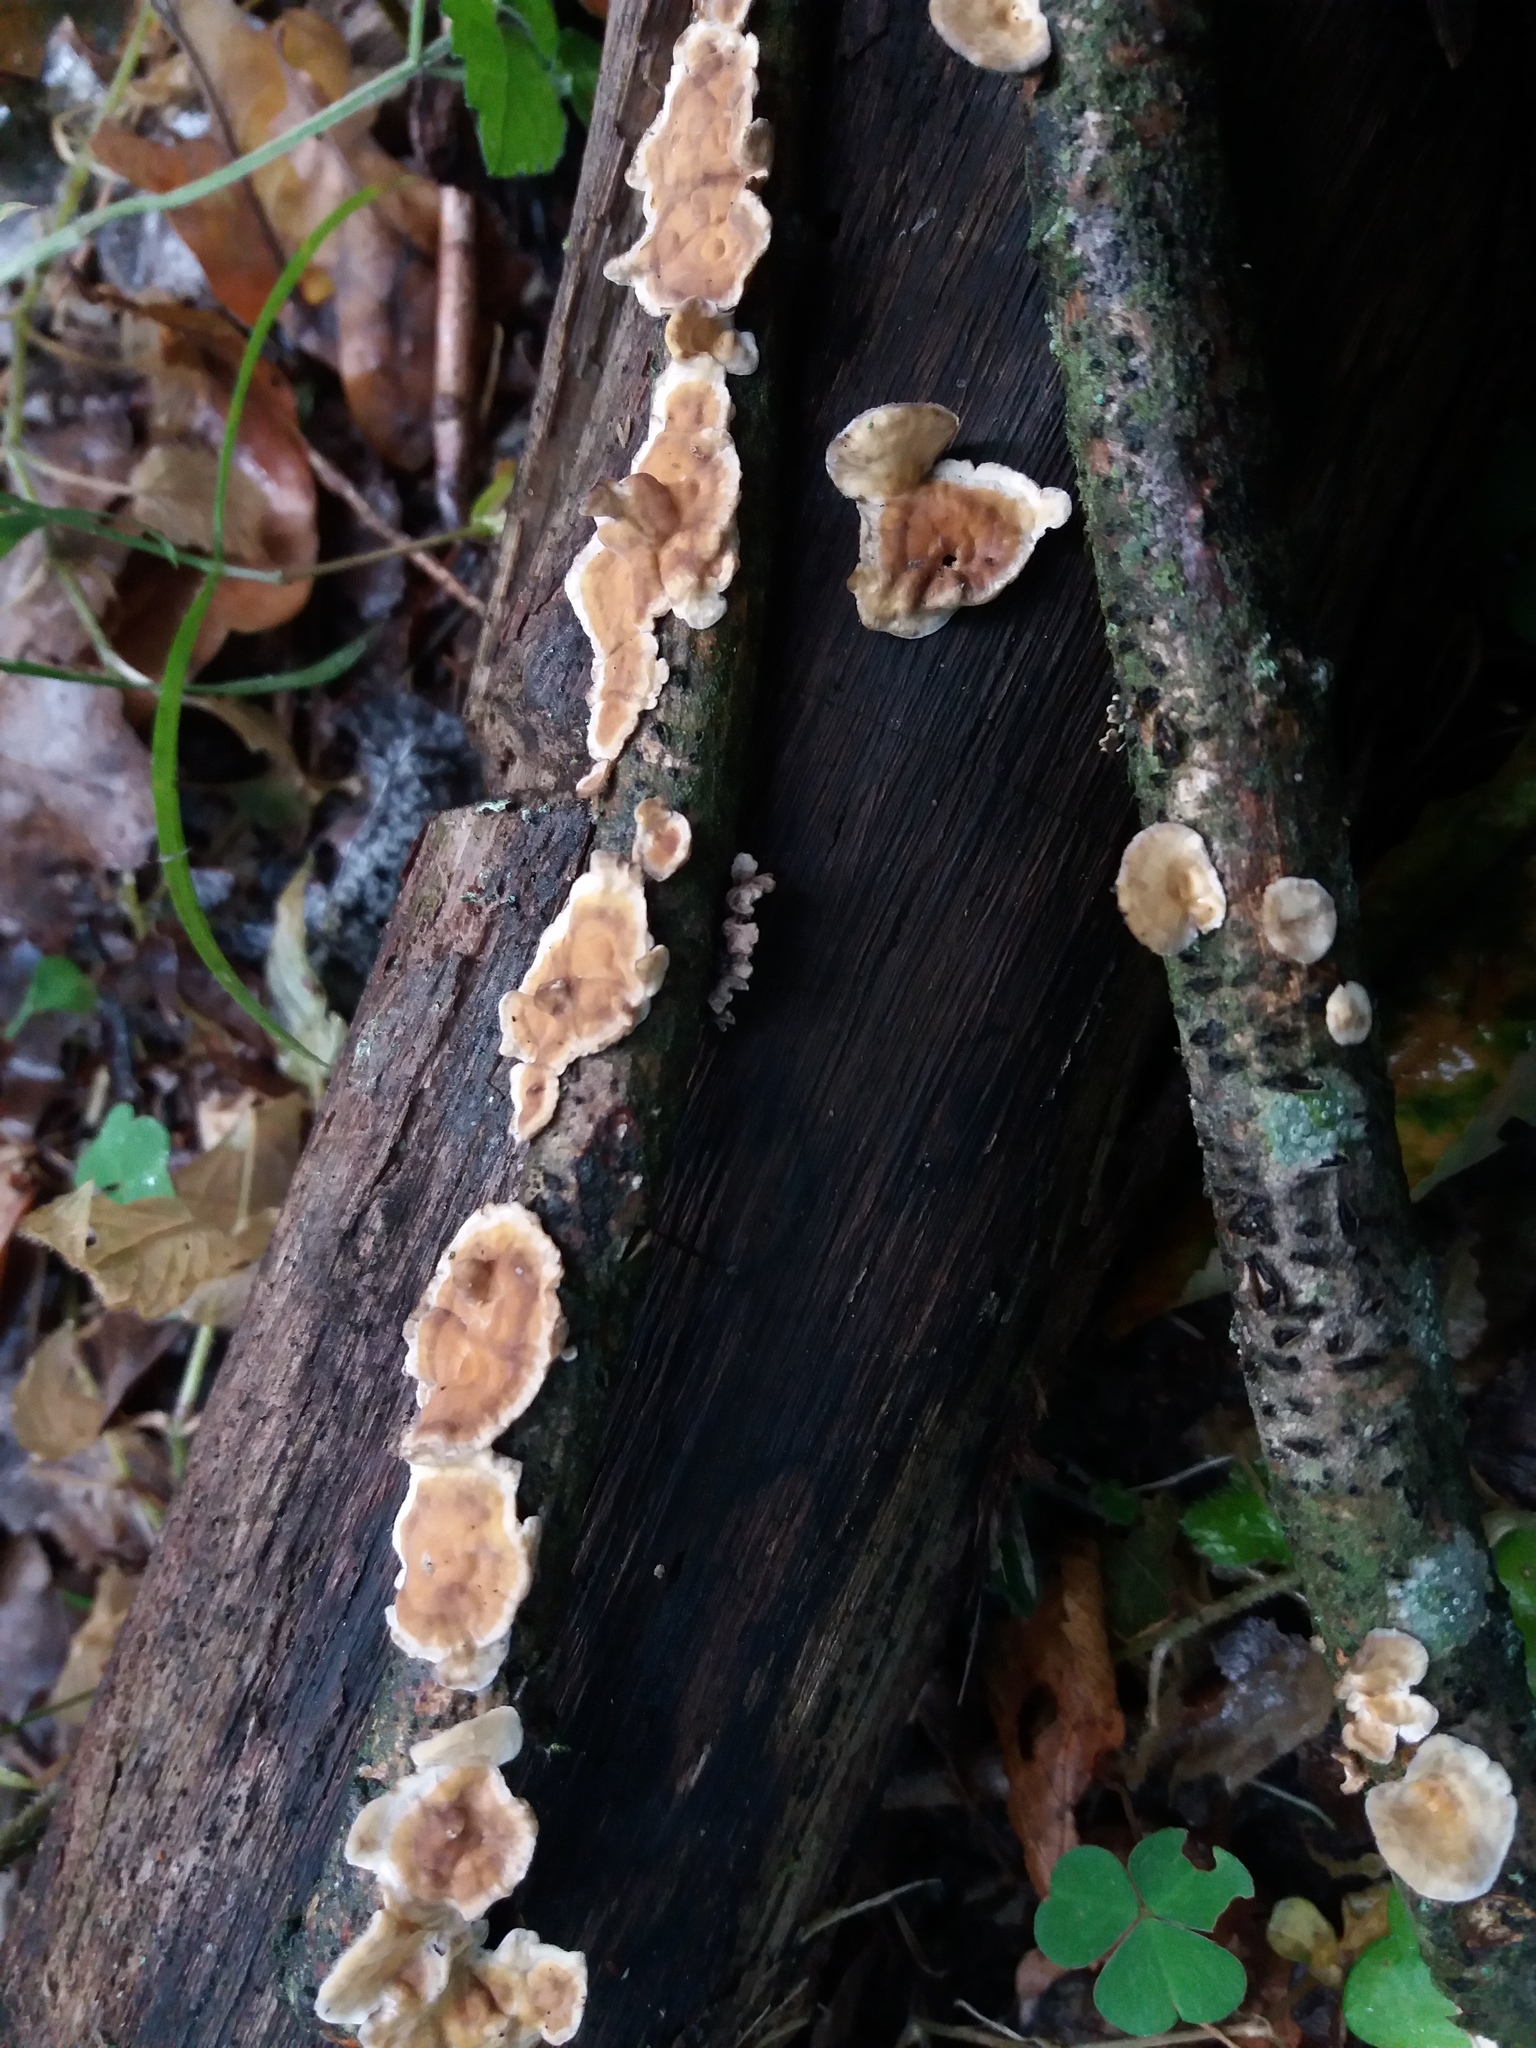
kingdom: Fungi
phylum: Basidiomycota
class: Agaricomycetes
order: Russulales
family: Stereaceae
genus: Stereum
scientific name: Stereum hirsutum
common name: Hairy curtain crust
